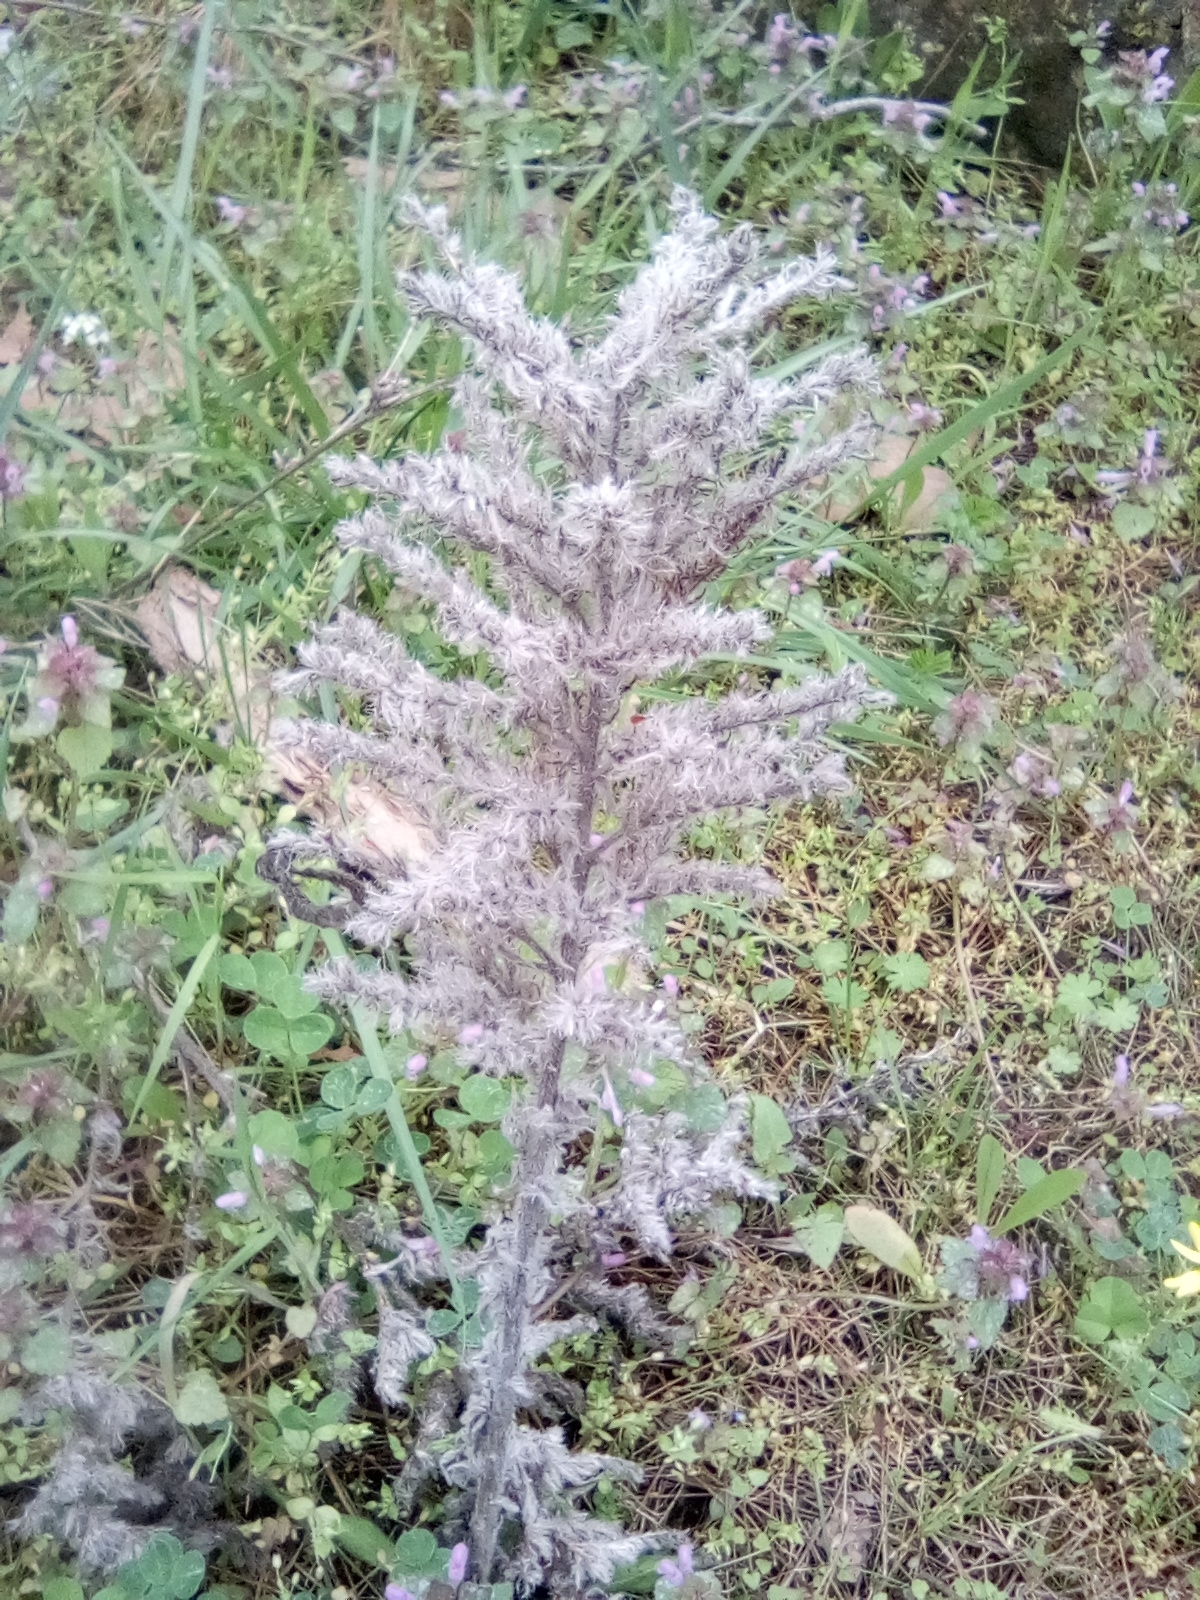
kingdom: Plantae
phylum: Tracheophyta
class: Magnoliopsida
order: Boraginales
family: Boraginaceae
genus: Echium
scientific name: Echium vulgare
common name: Common viper's bugloss
